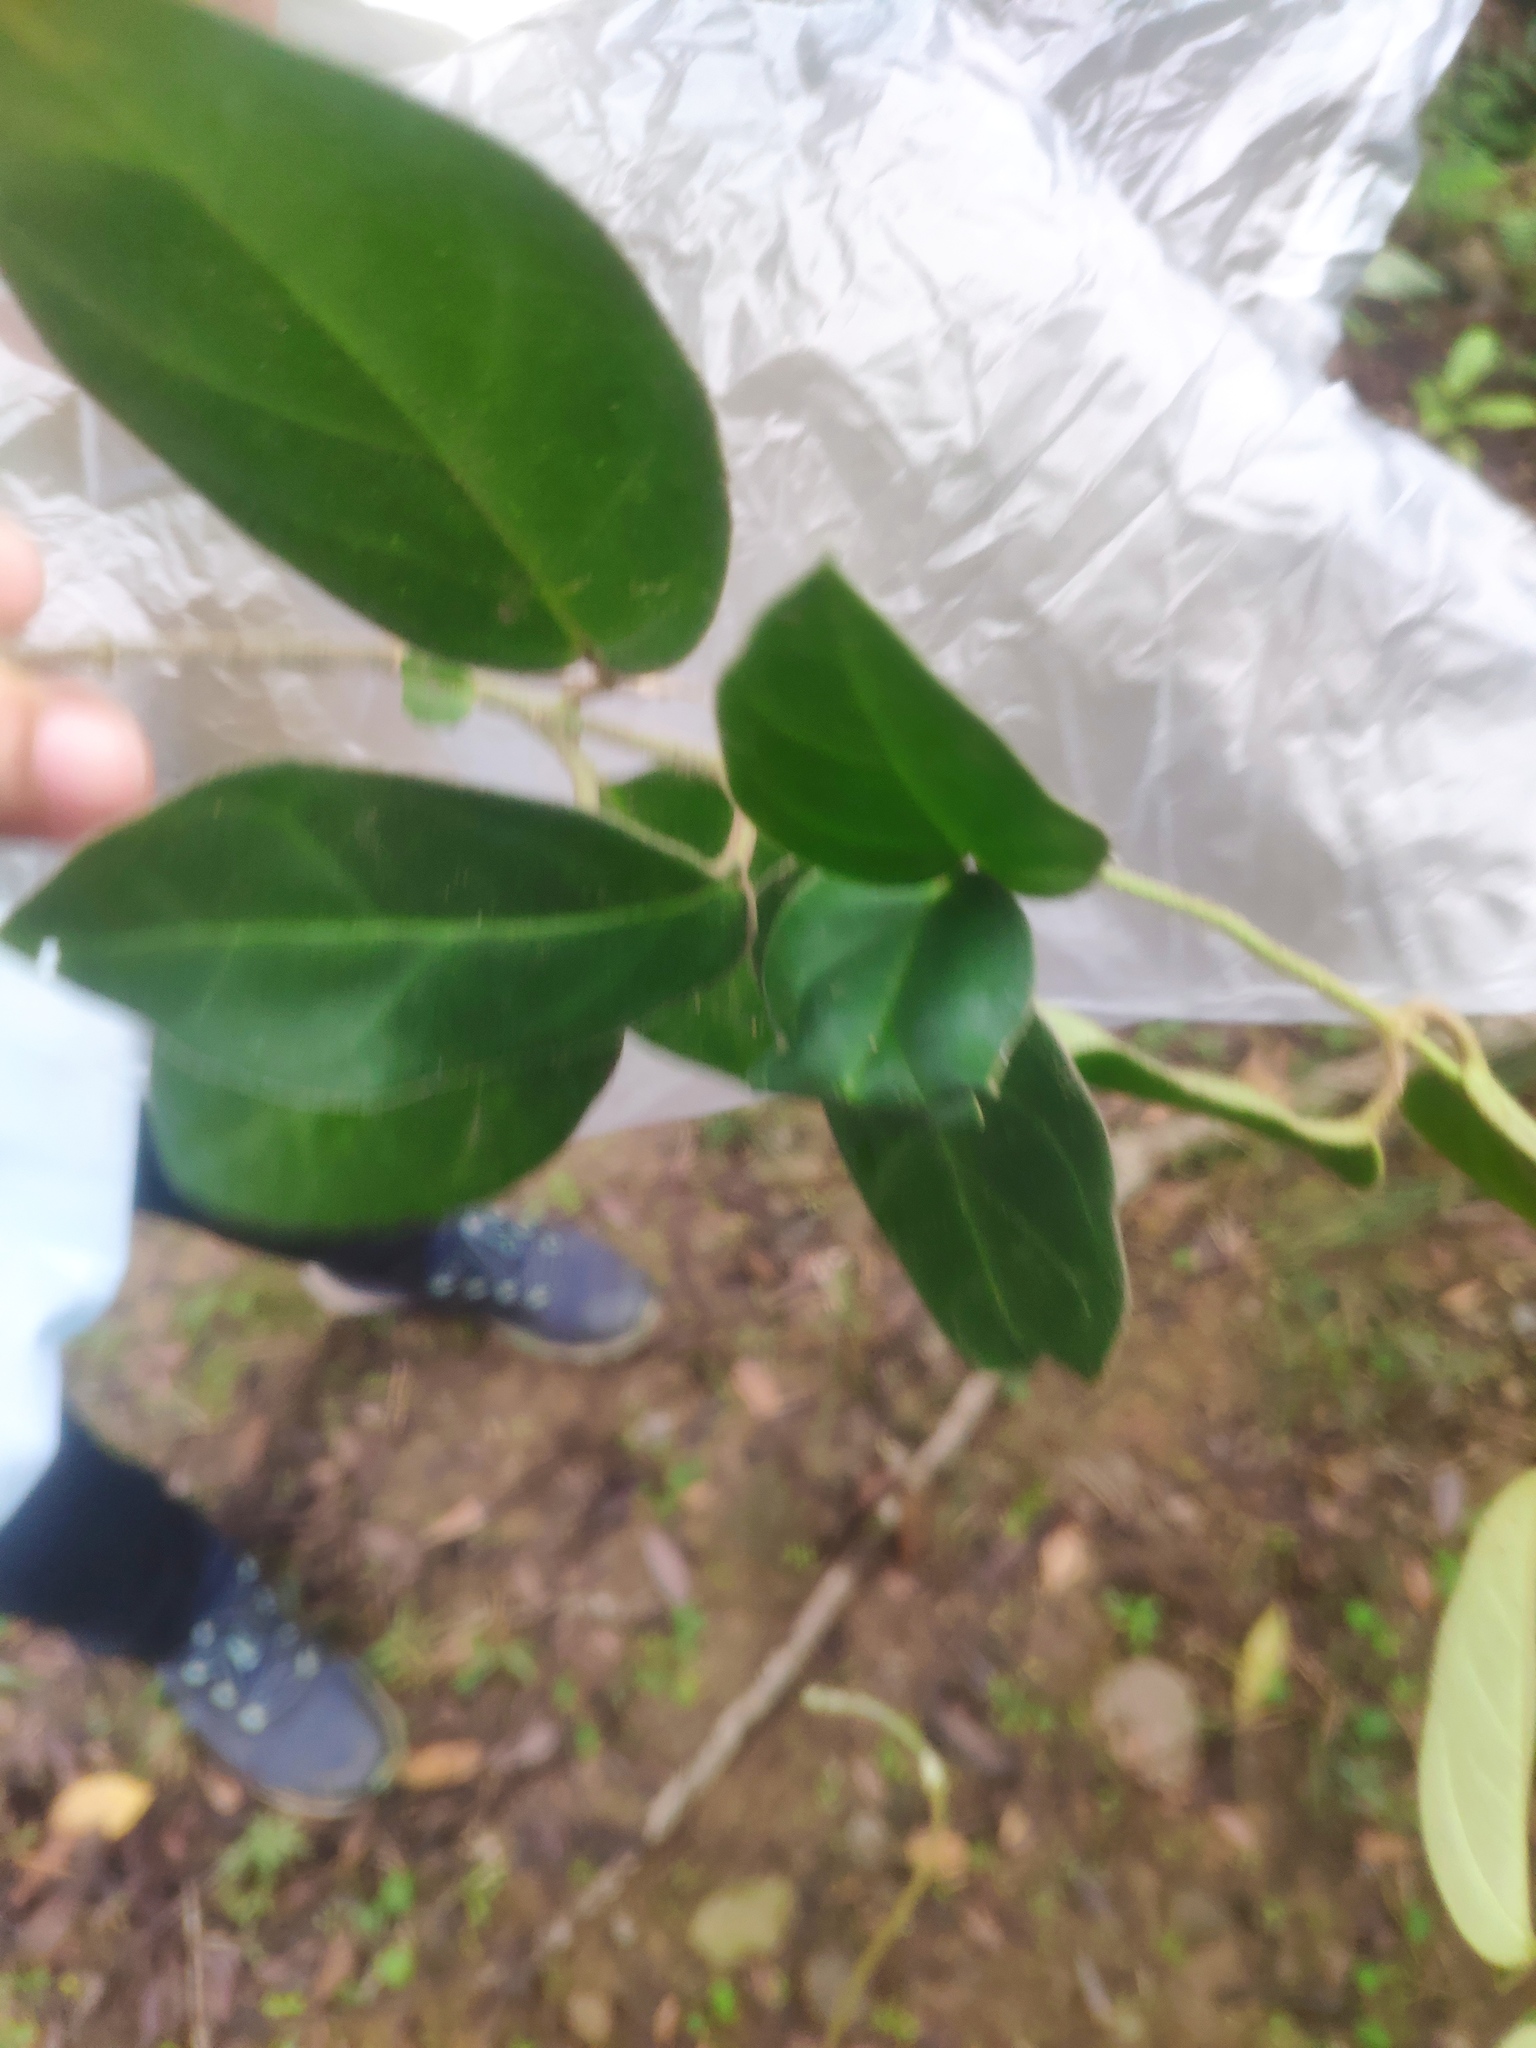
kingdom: Plantae
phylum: Tracheophyta
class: Magnoliopsida
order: Gentianales
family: Apocynaceae
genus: Vincetoxicum
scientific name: Vincetoxicum hirsutum
